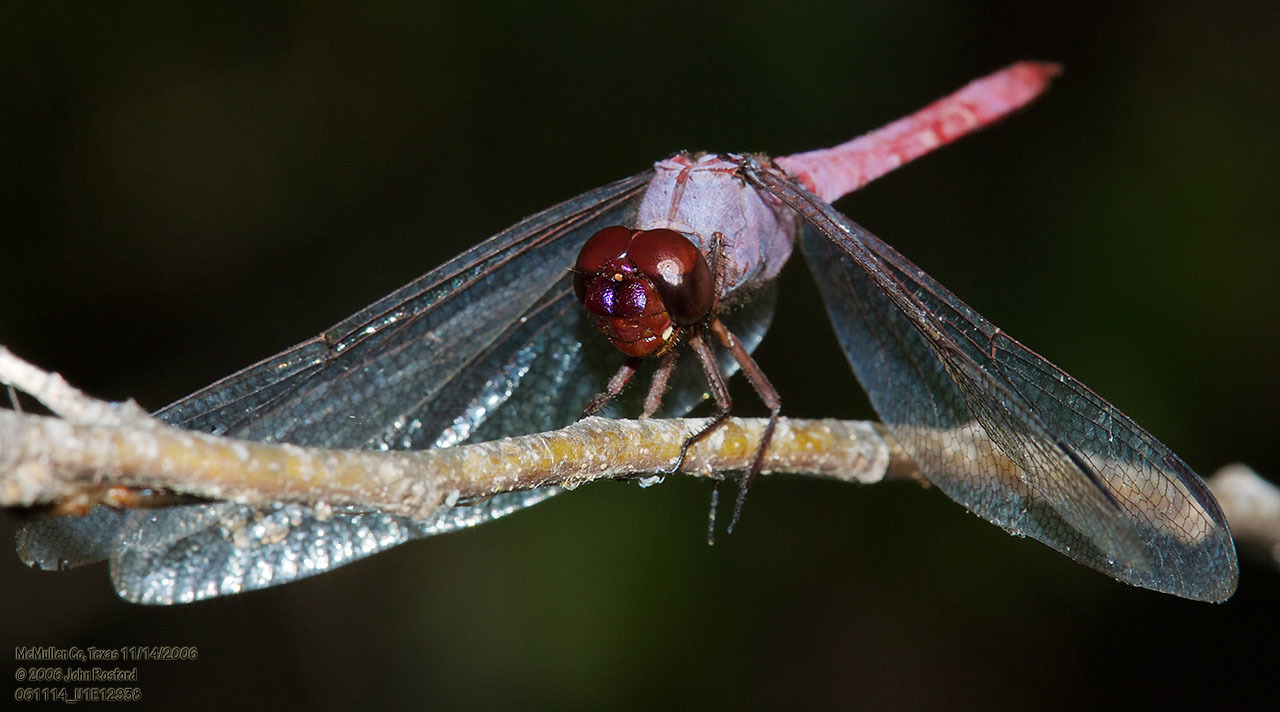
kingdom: Animalia
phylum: Arthropoda
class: Insecta
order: Odonata
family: Libellulidae
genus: Orthemis
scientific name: Orthemis ferruginea
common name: Roseate skimmer
